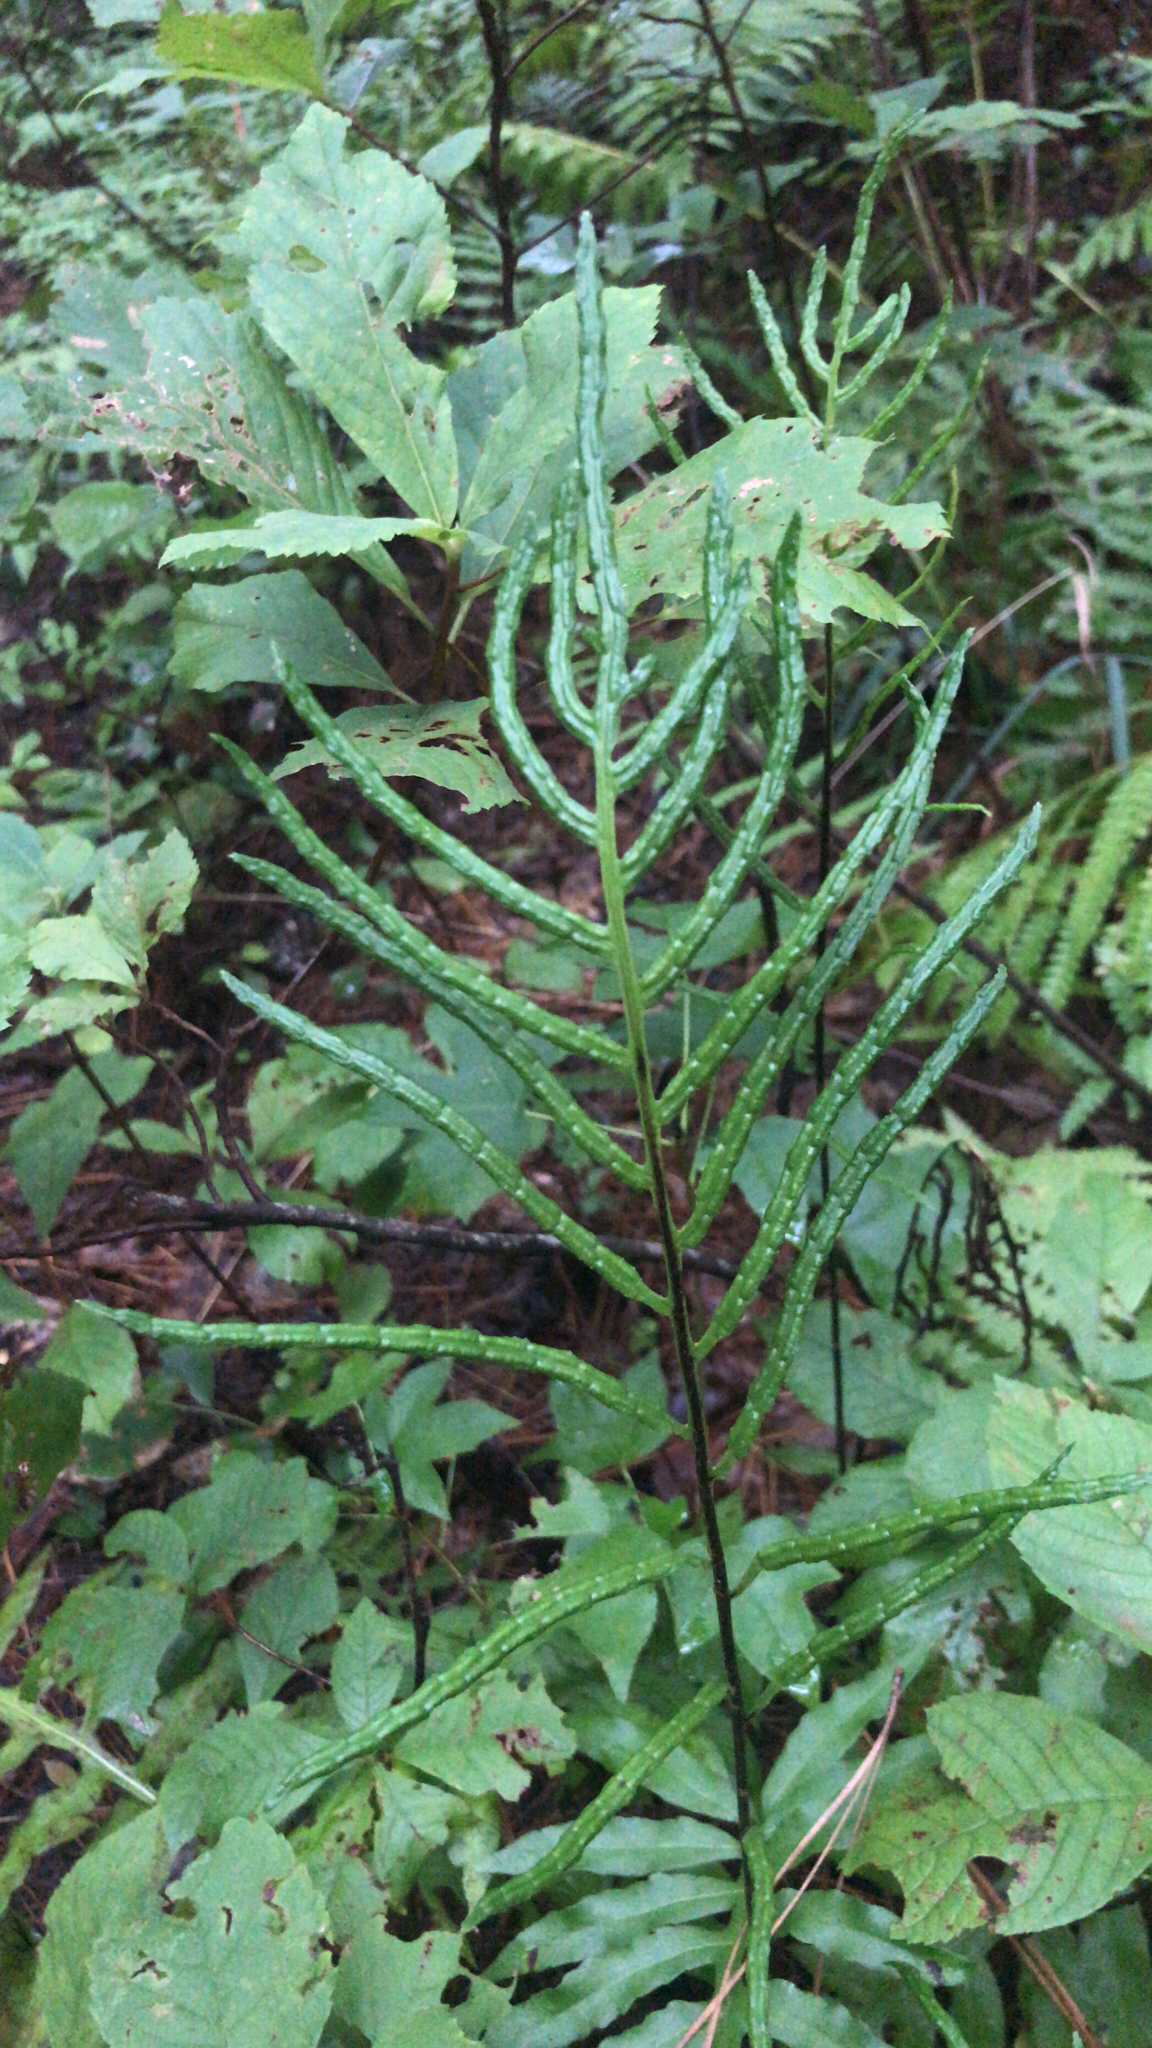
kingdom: Plantae
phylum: Tracheophyta
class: Polypodiopsida
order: Polypodiales
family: Blechnaceae
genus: Lorinseria
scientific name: Lorinseria areolata
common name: Dwarf chain fern
